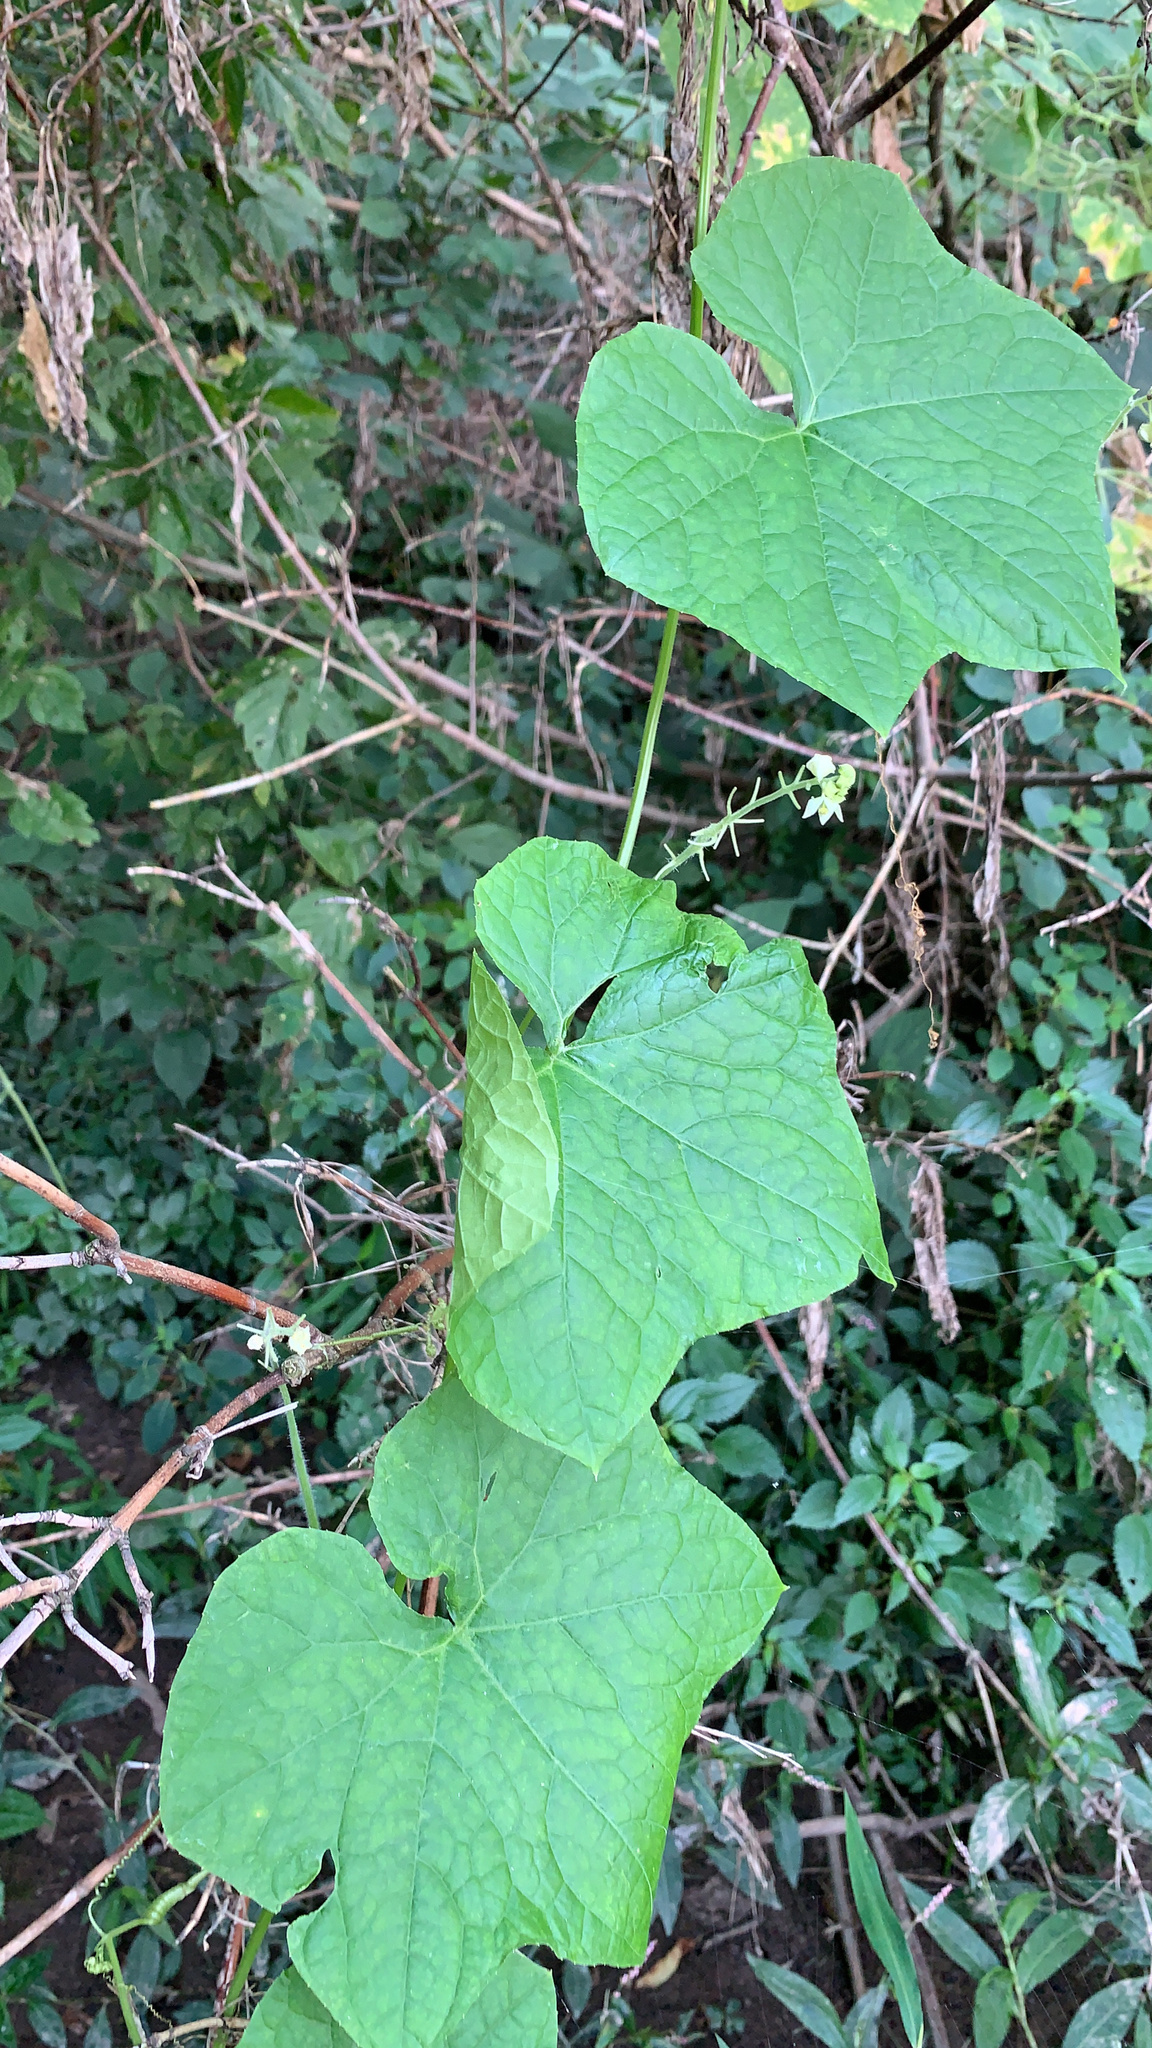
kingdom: Plantae
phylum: Tracheophyta
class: Magnoliopsida
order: Cucurbitales
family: Cucurbitaceae
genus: Sicyos
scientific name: Sicyos angulatus
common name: Angled burr cucumber
